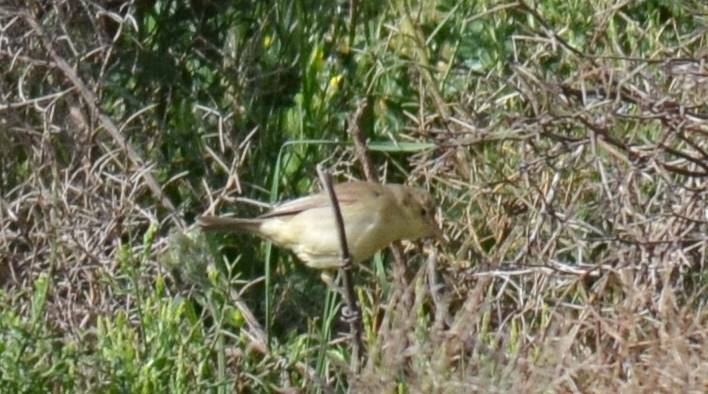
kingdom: Animalia
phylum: Chordata
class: Aves
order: Passeriformes
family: Acrocephalidae
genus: Hippolais
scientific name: Hippolais polyglotta
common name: Melodious warbler
